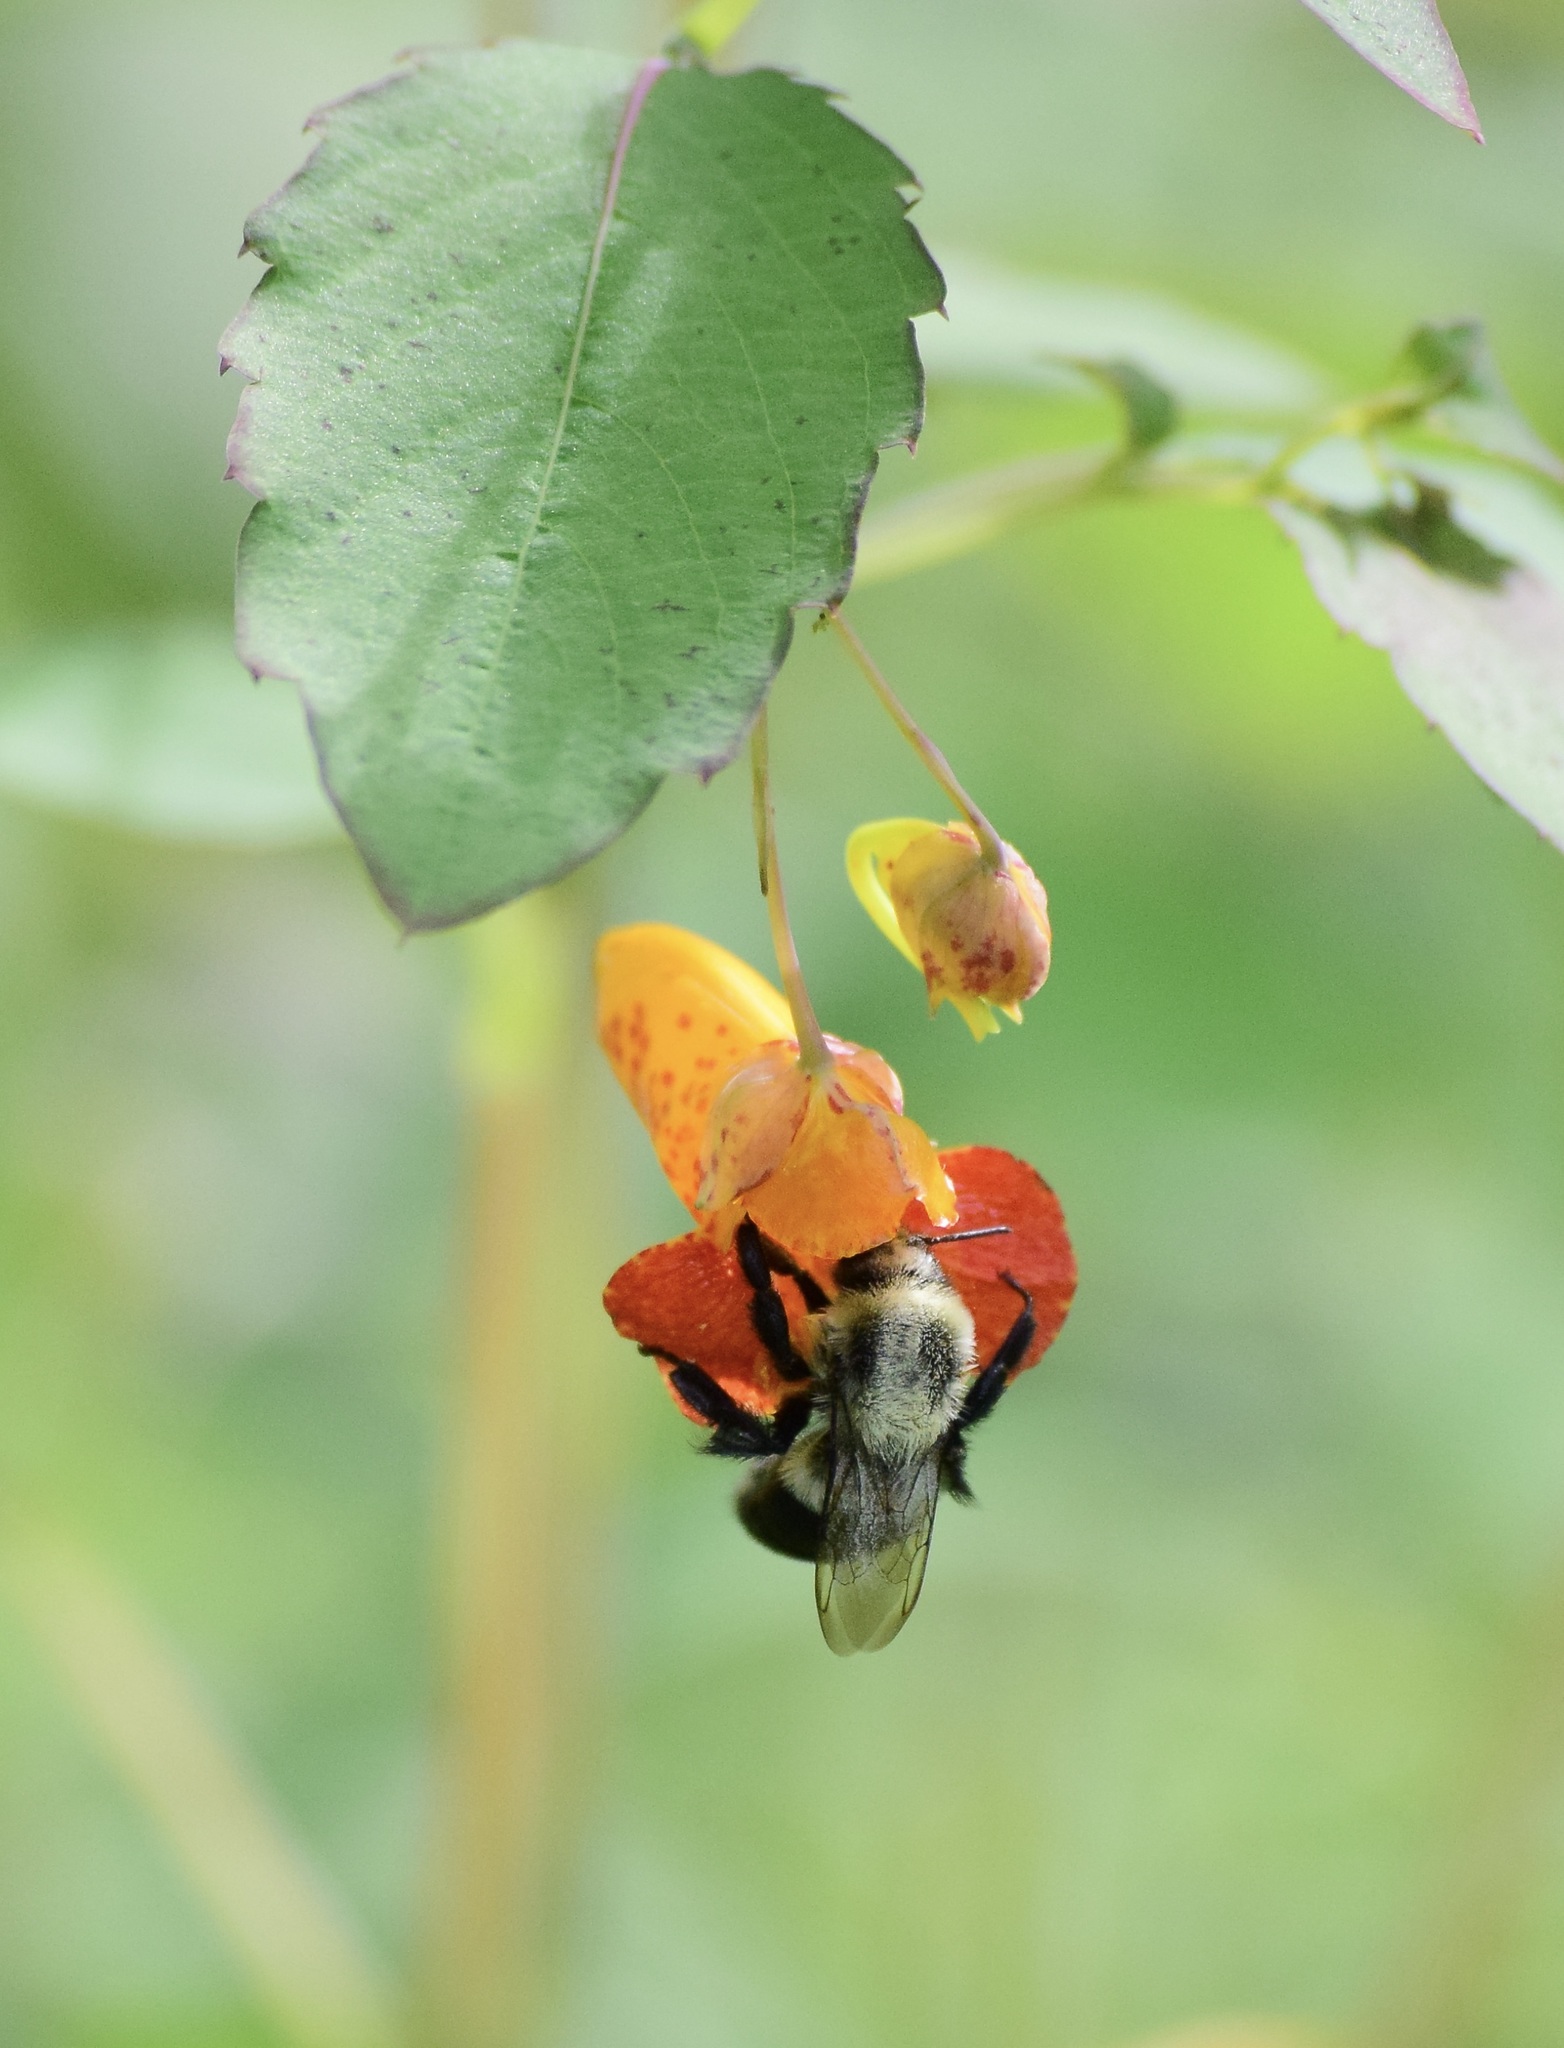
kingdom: Animalia
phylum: Arthropoda
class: Insecta
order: Hymenoptera
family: Apidae
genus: Bombus
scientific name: Bombus impatiens
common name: Common eastern bumble bee
